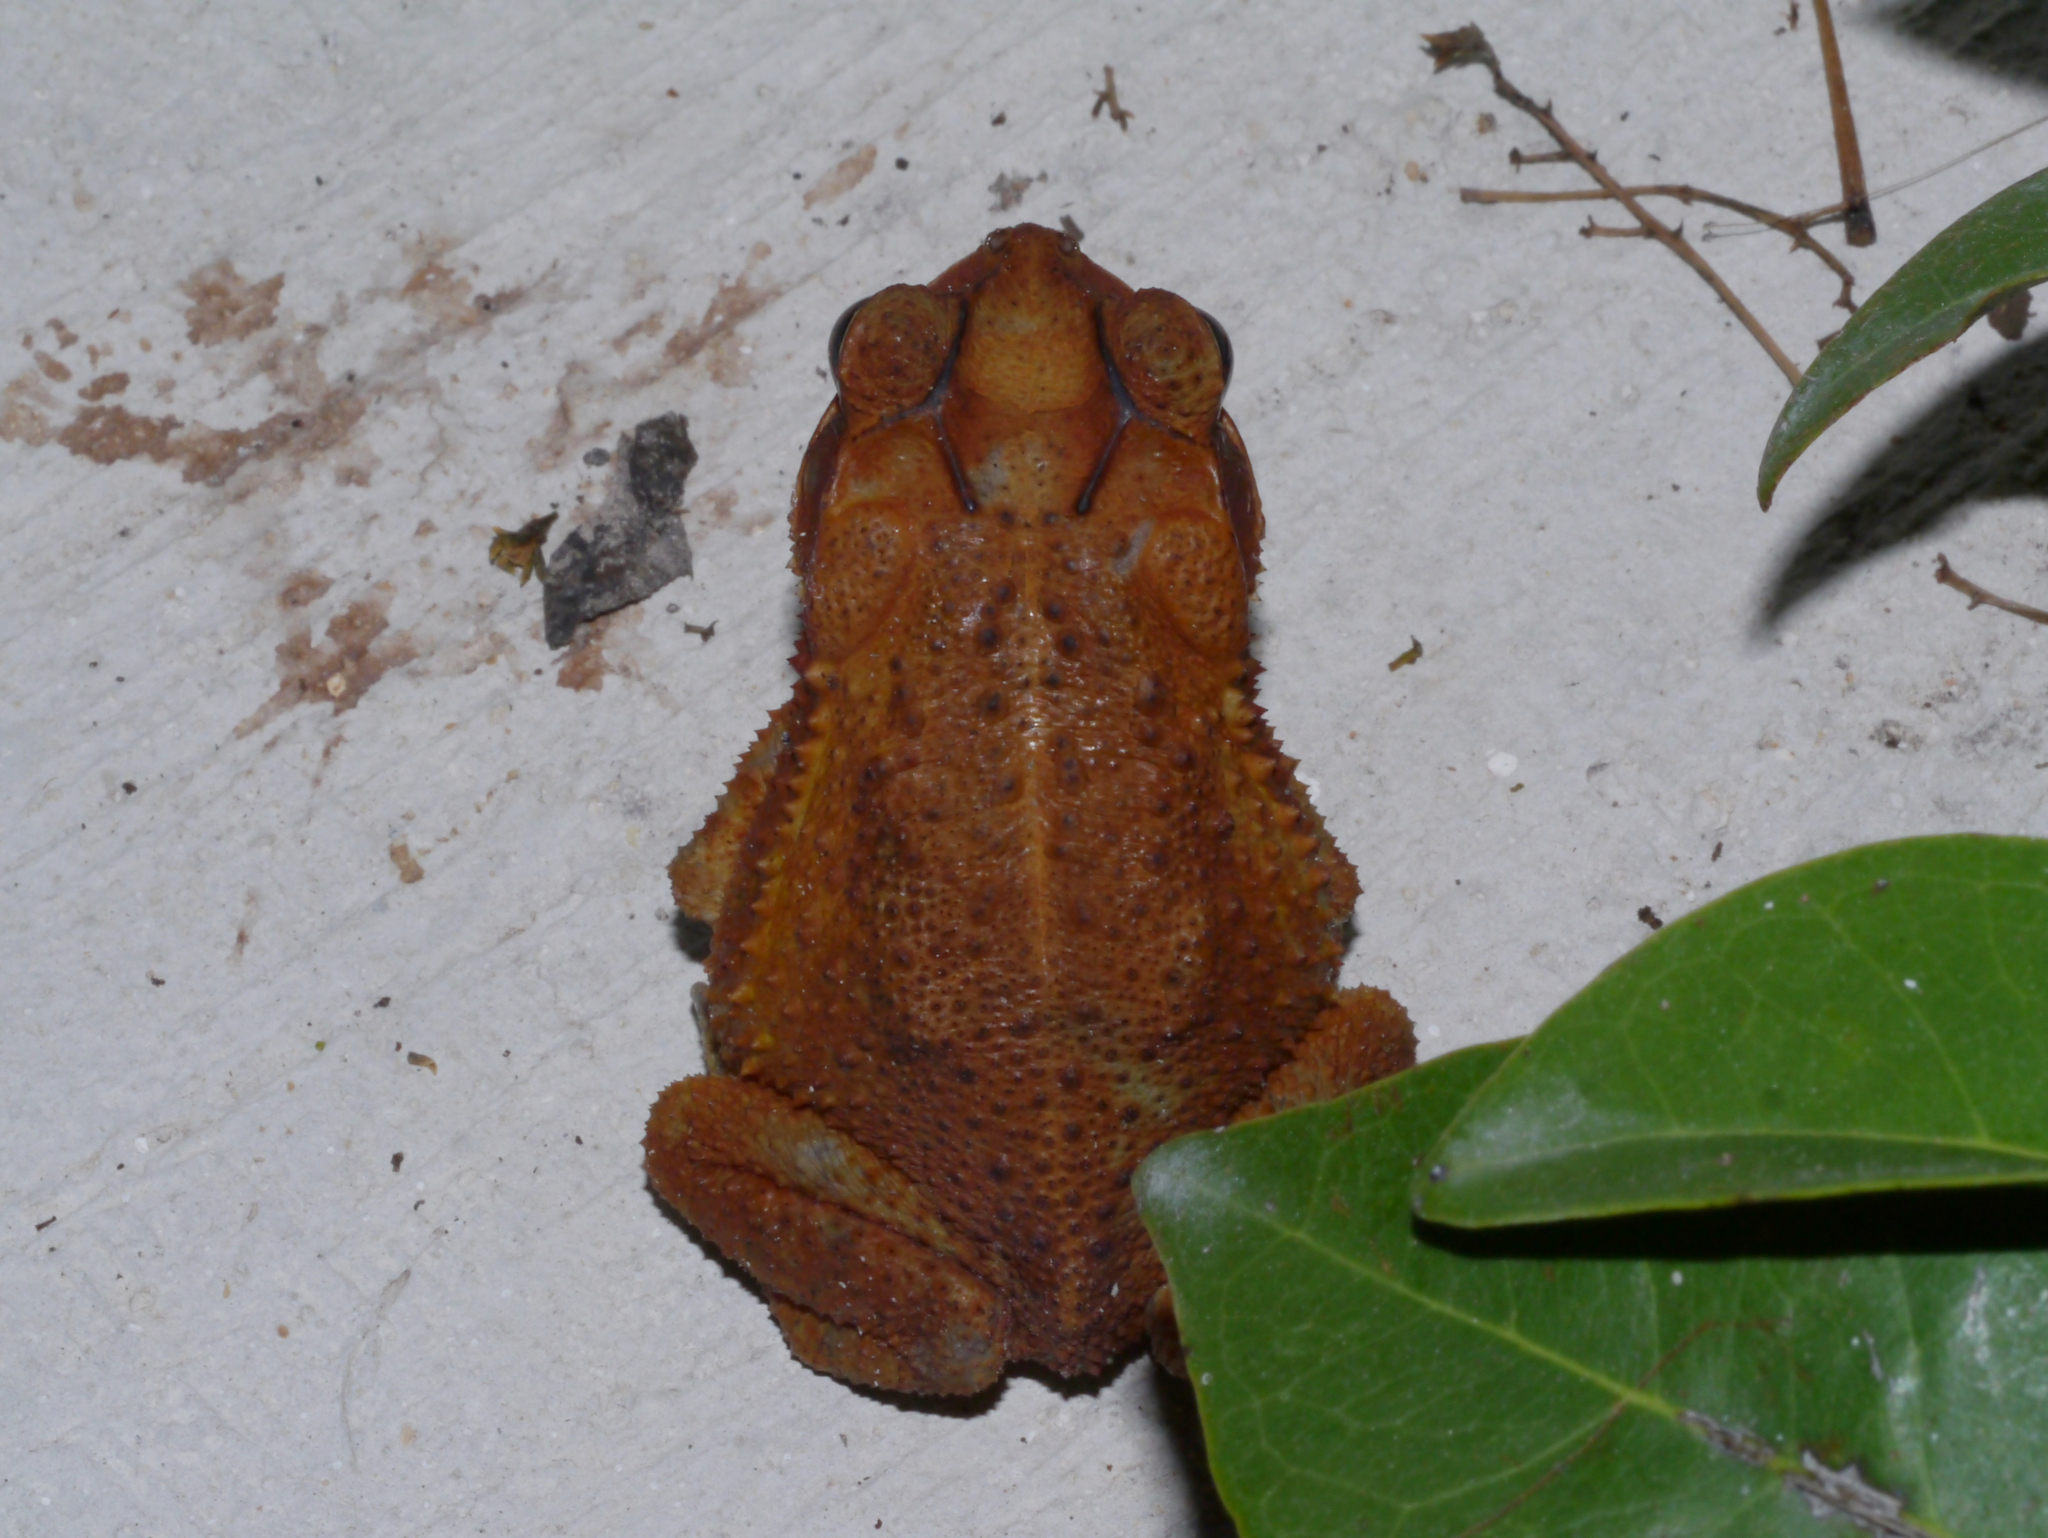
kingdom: Animalia
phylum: Chordata
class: Amphibia
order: Anura
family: Bufonidae
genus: Incilius
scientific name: Incilius valliceps
